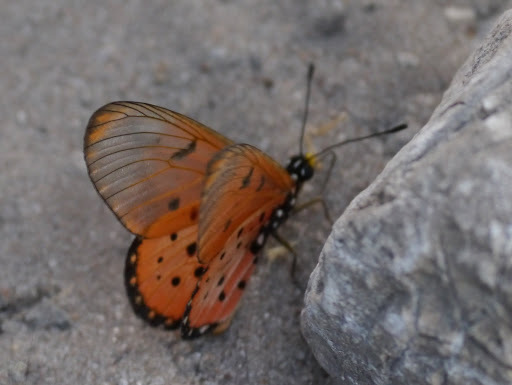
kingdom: Animalia
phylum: Arthropoda
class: Insecta
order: Lepidoptera
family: Nymphalidae
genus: Acraea
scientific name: Acraea neobule
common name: Dancing acraea
